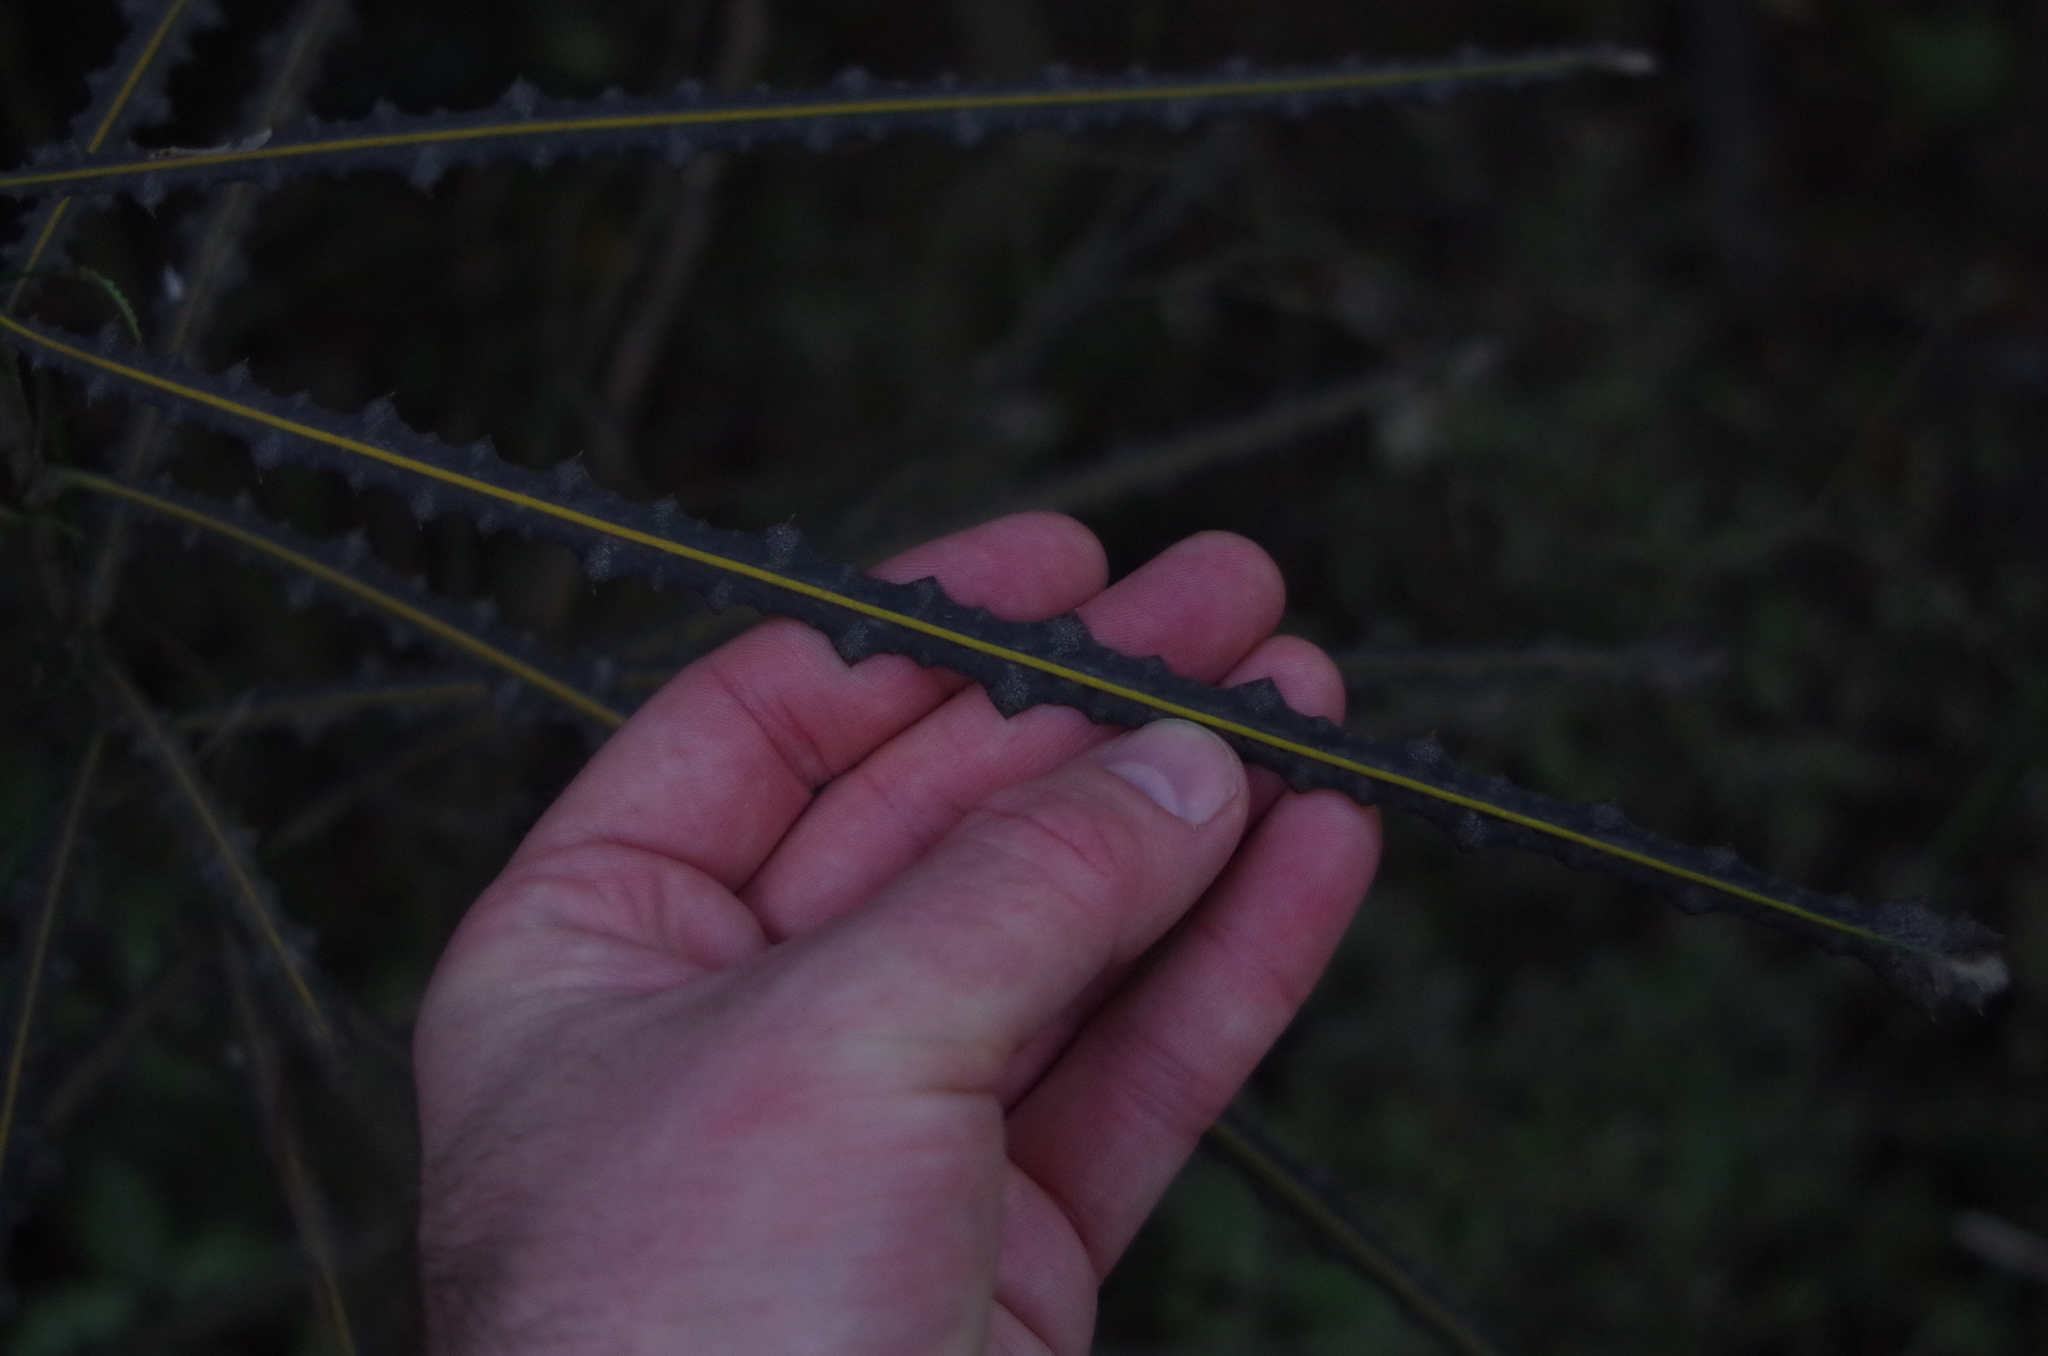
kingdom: Plantae
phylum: Tracheophyta
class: Magnoliopsida
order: Apiales
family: Araliaceae
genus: Pseudopanax
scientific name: Pseudopanax ferox
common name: Fierce lancewood
